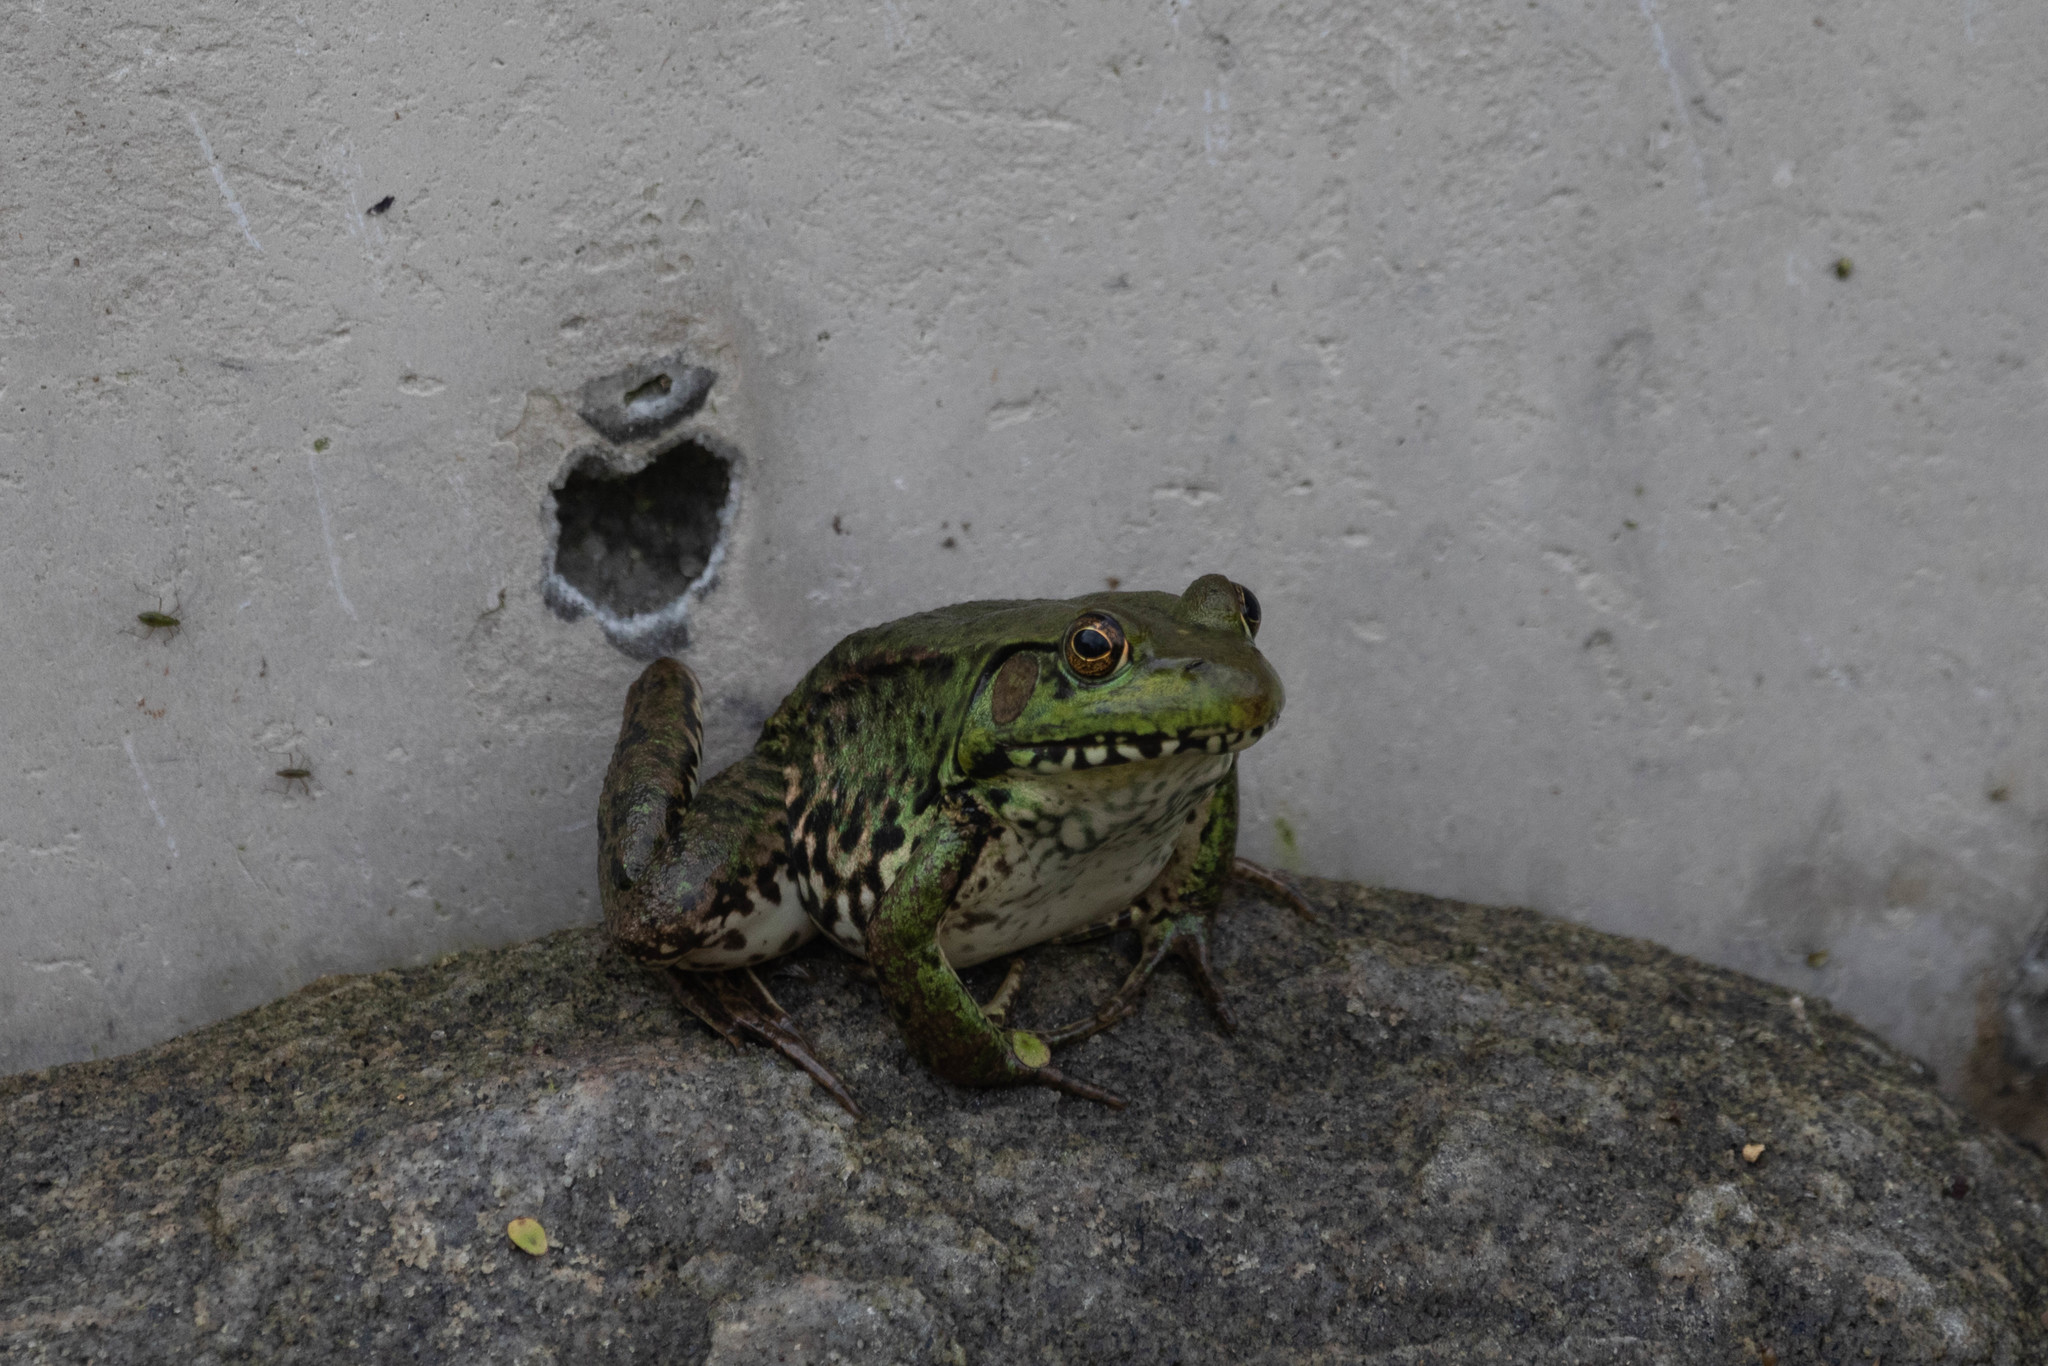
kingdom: Animalia
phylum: Chordata
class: Amphibia
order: Anura
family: Ranidae
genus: Lithobates
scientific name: Lithobates clamitans
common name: Green frog
